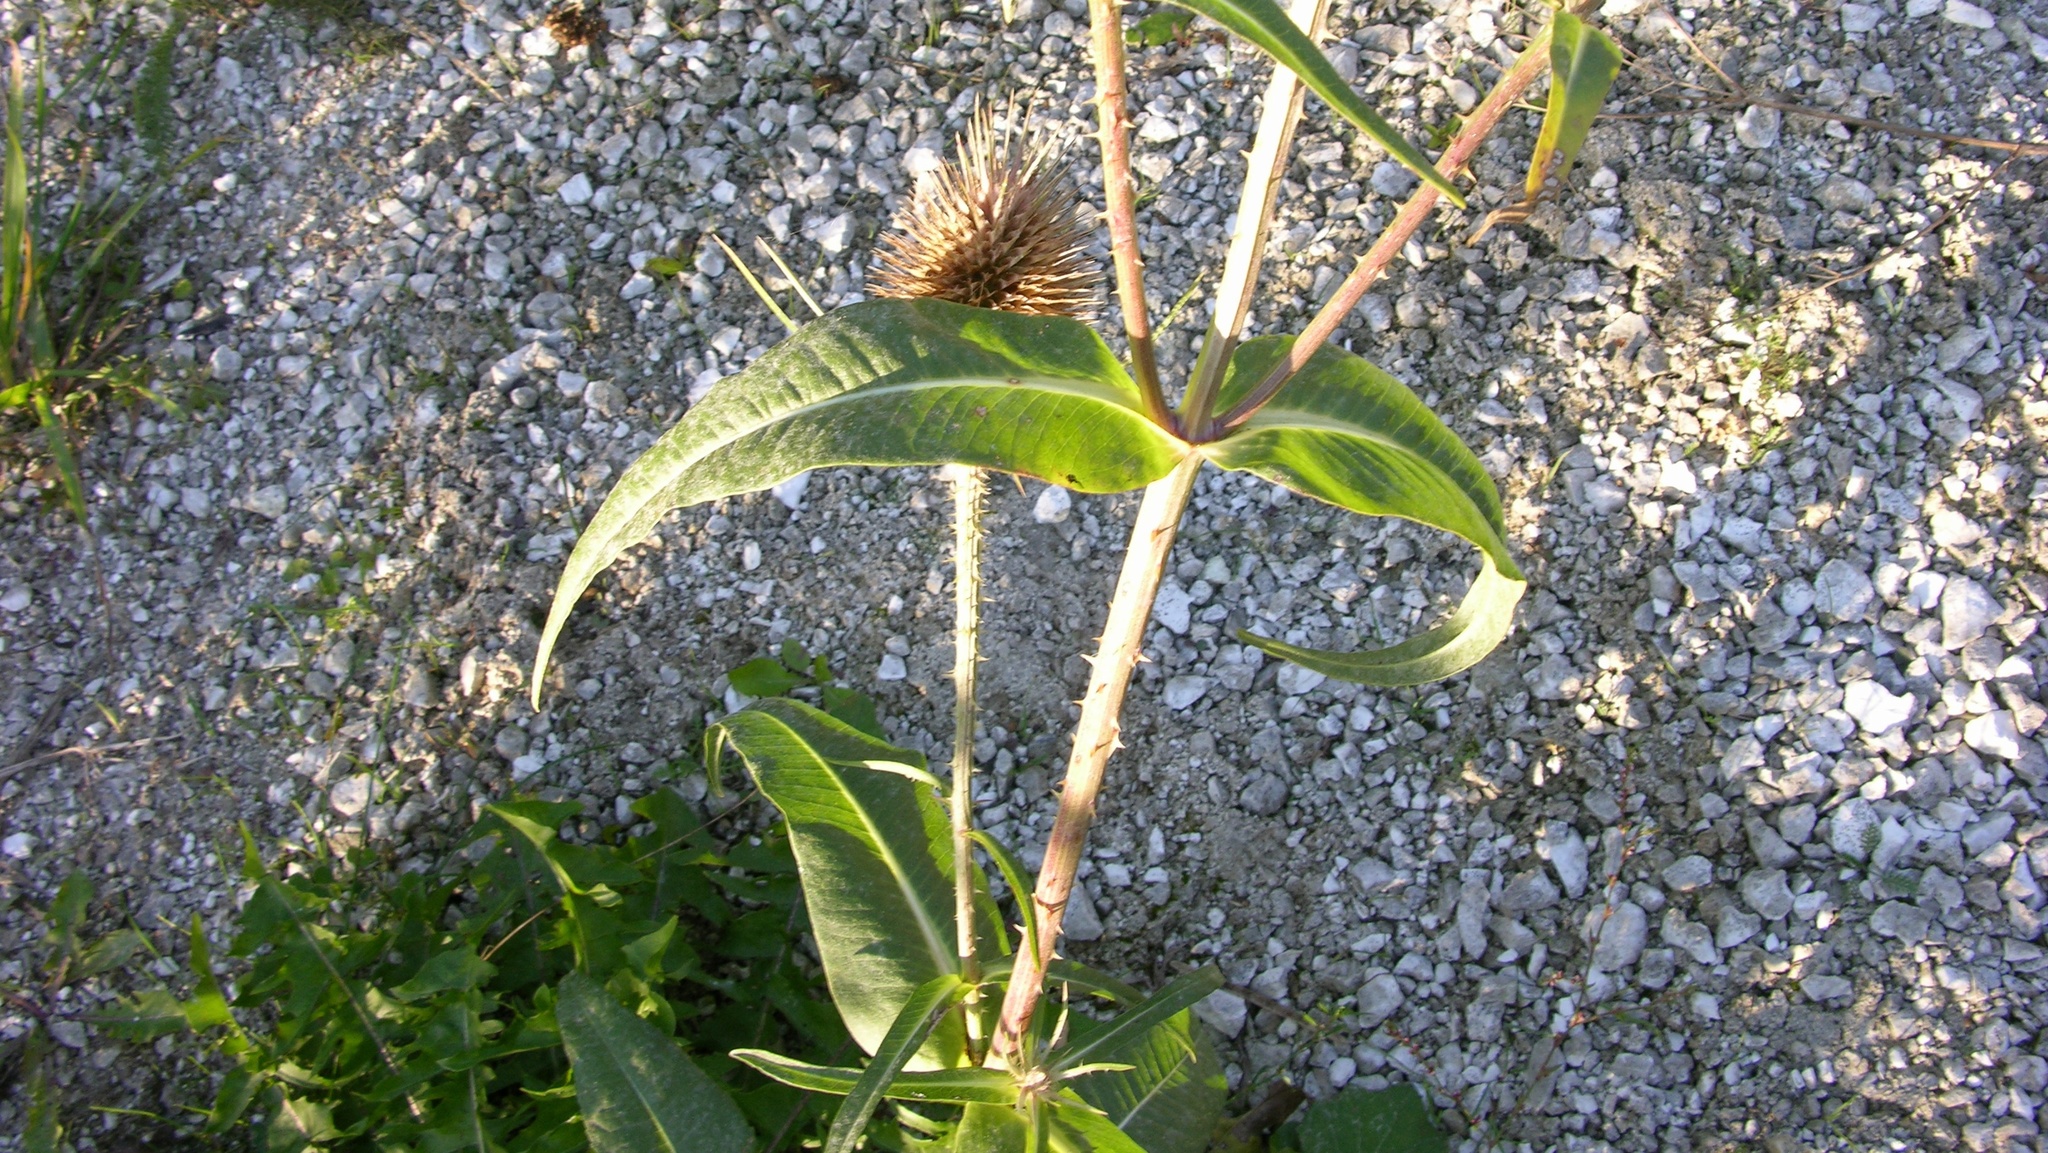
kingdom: Plantae
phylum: Tracheophyta
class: Magnoliopsida
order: Dipsacales
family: Caprifoliaceae
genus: Dipsacus
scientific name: Dipsacus fullonum
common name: Teasel
